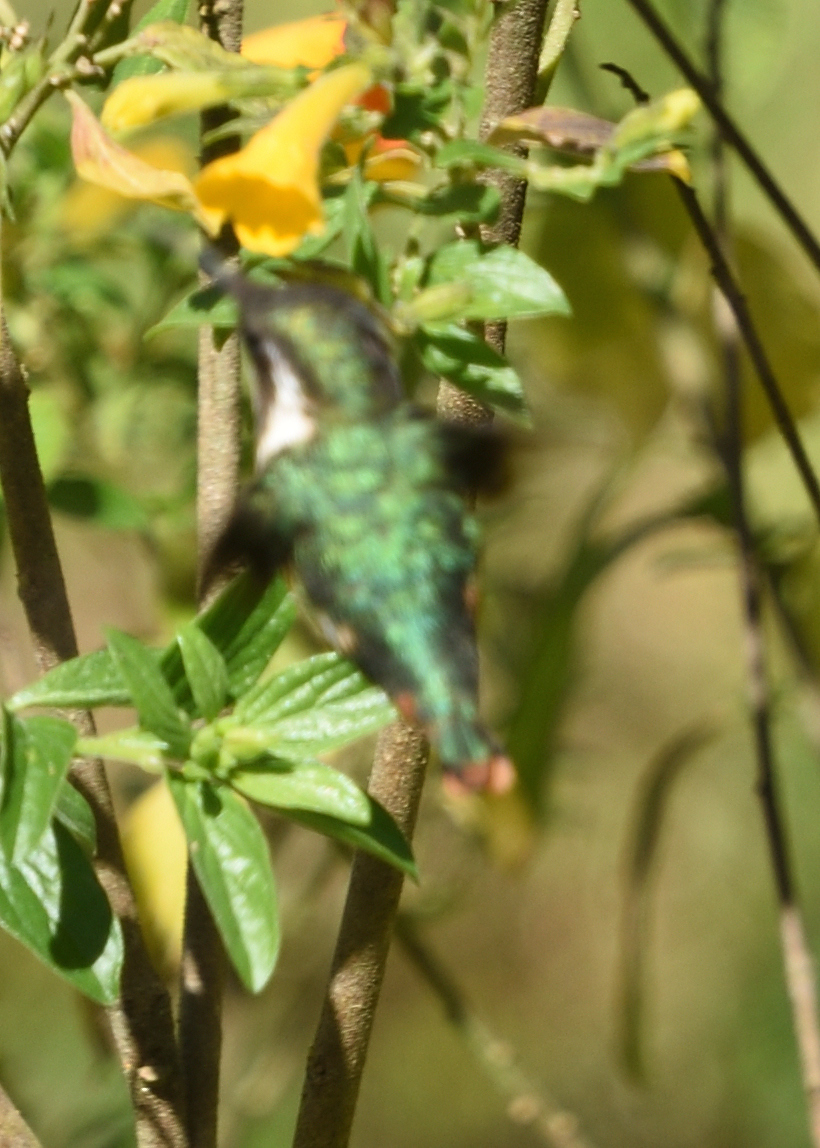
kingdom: Animalia
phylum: Chordata
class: Aves
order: Apodiformes
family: Trochilidae
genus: Chaetocercus
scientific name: Chaetocercus astreans
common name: Santa marta woodstar
